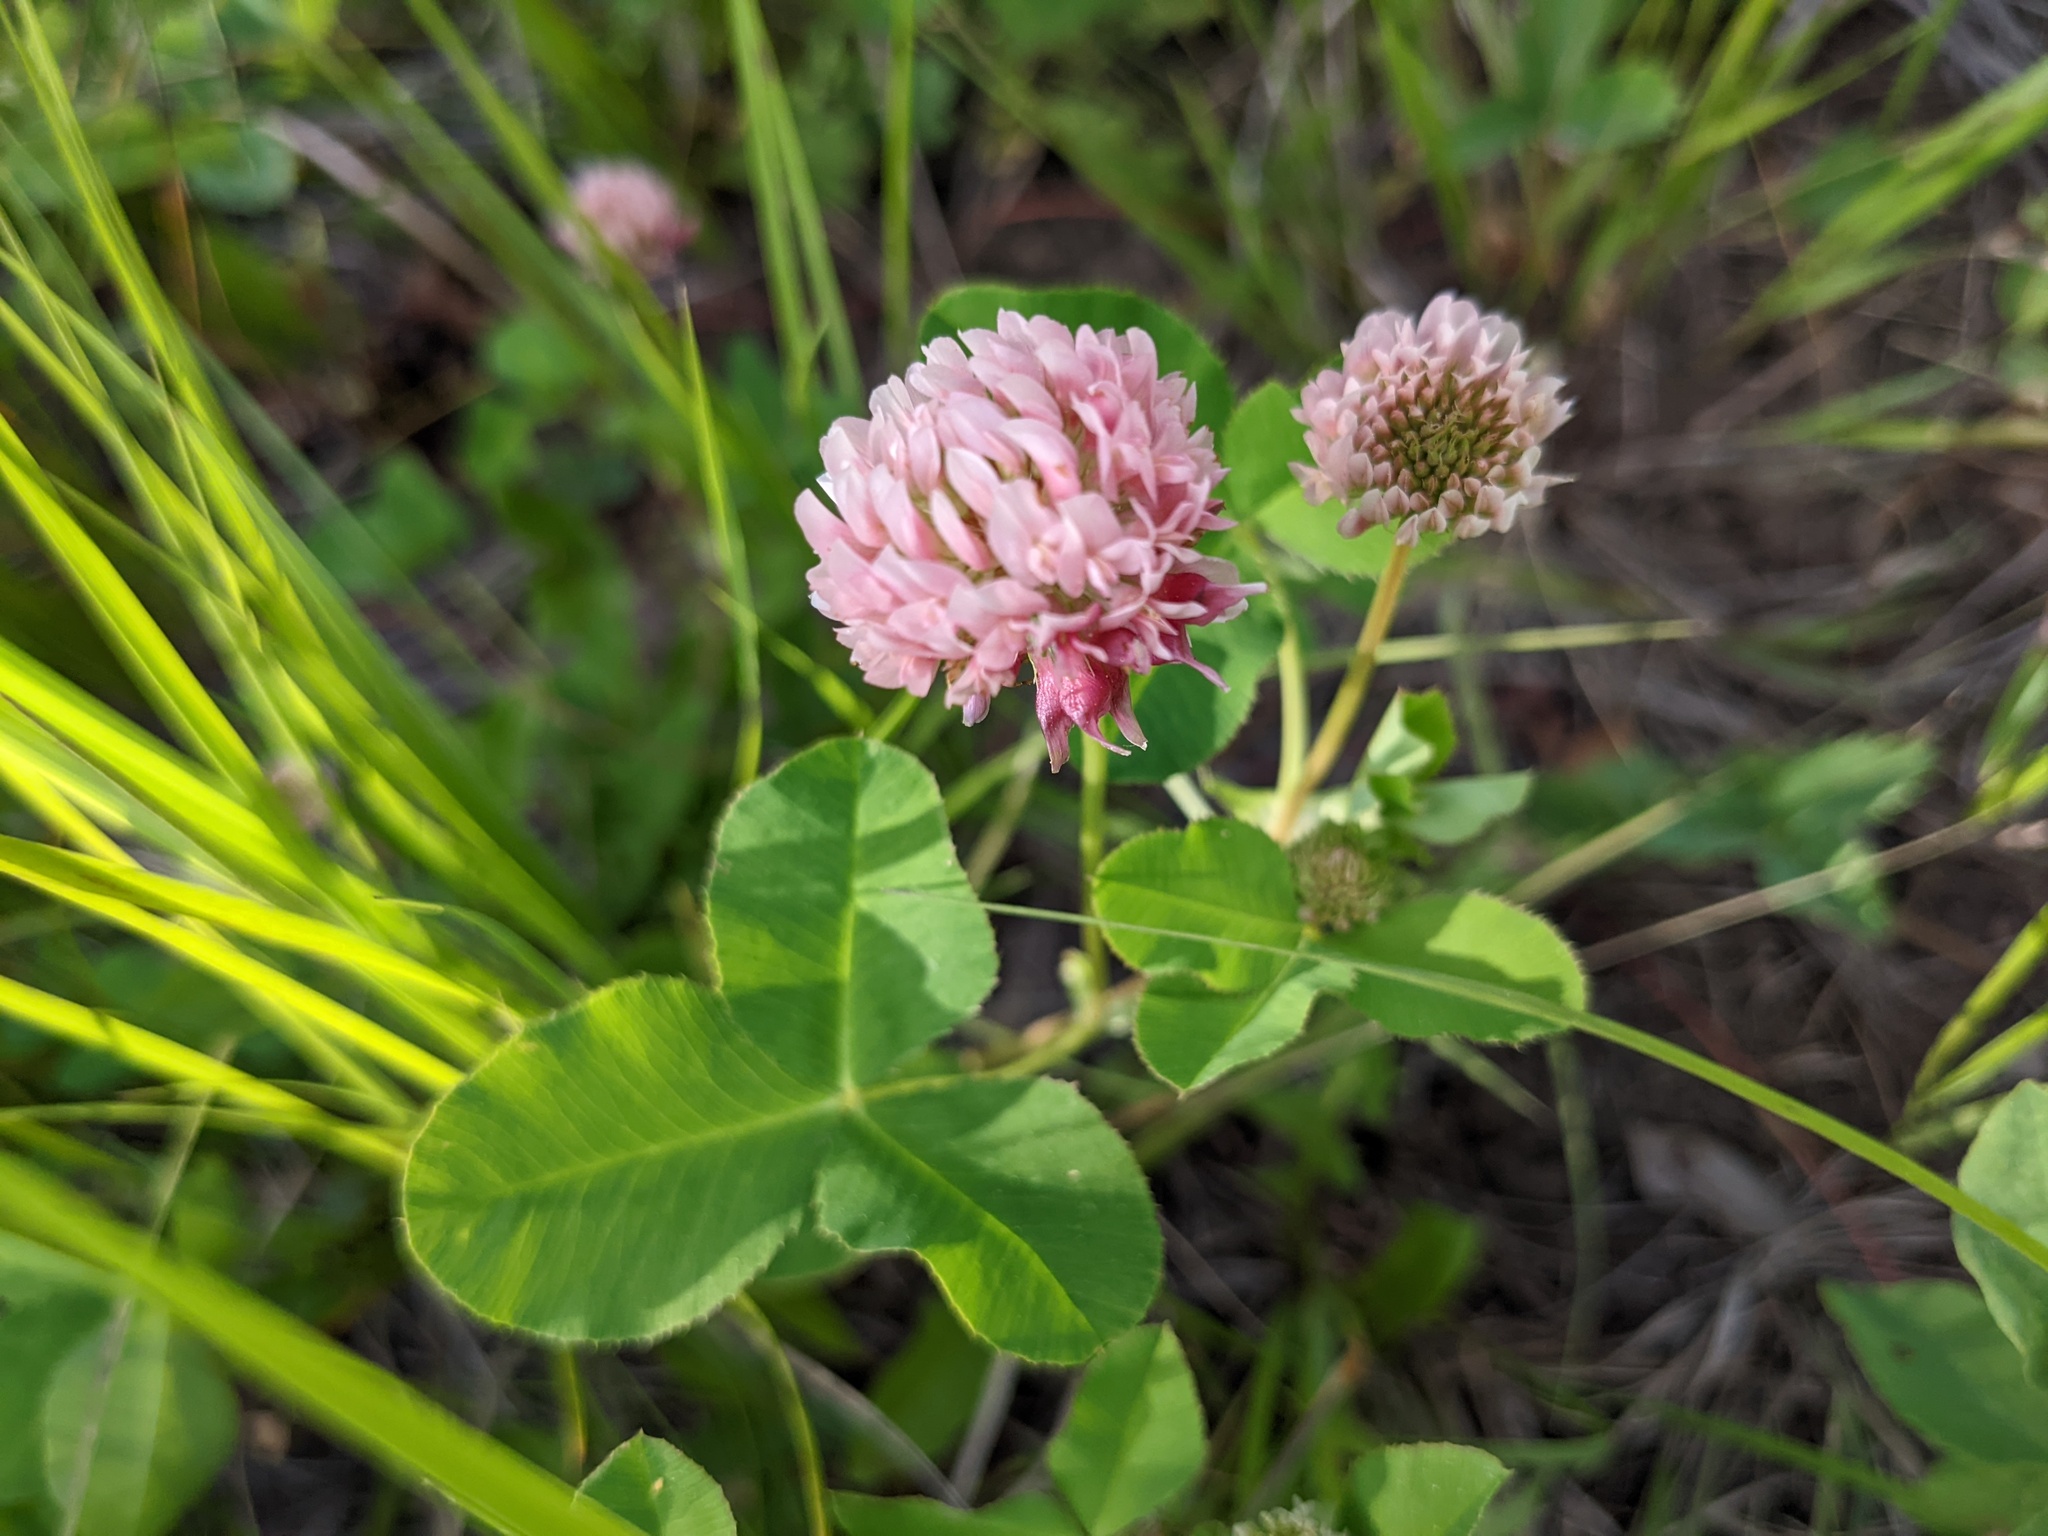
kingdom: Plantae
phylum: Tracheophyta
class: Magnoliopsida
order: Fabales
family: Fabaceae
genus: Trifolium
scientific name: Trifolium hybridum
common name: Alsike clover
